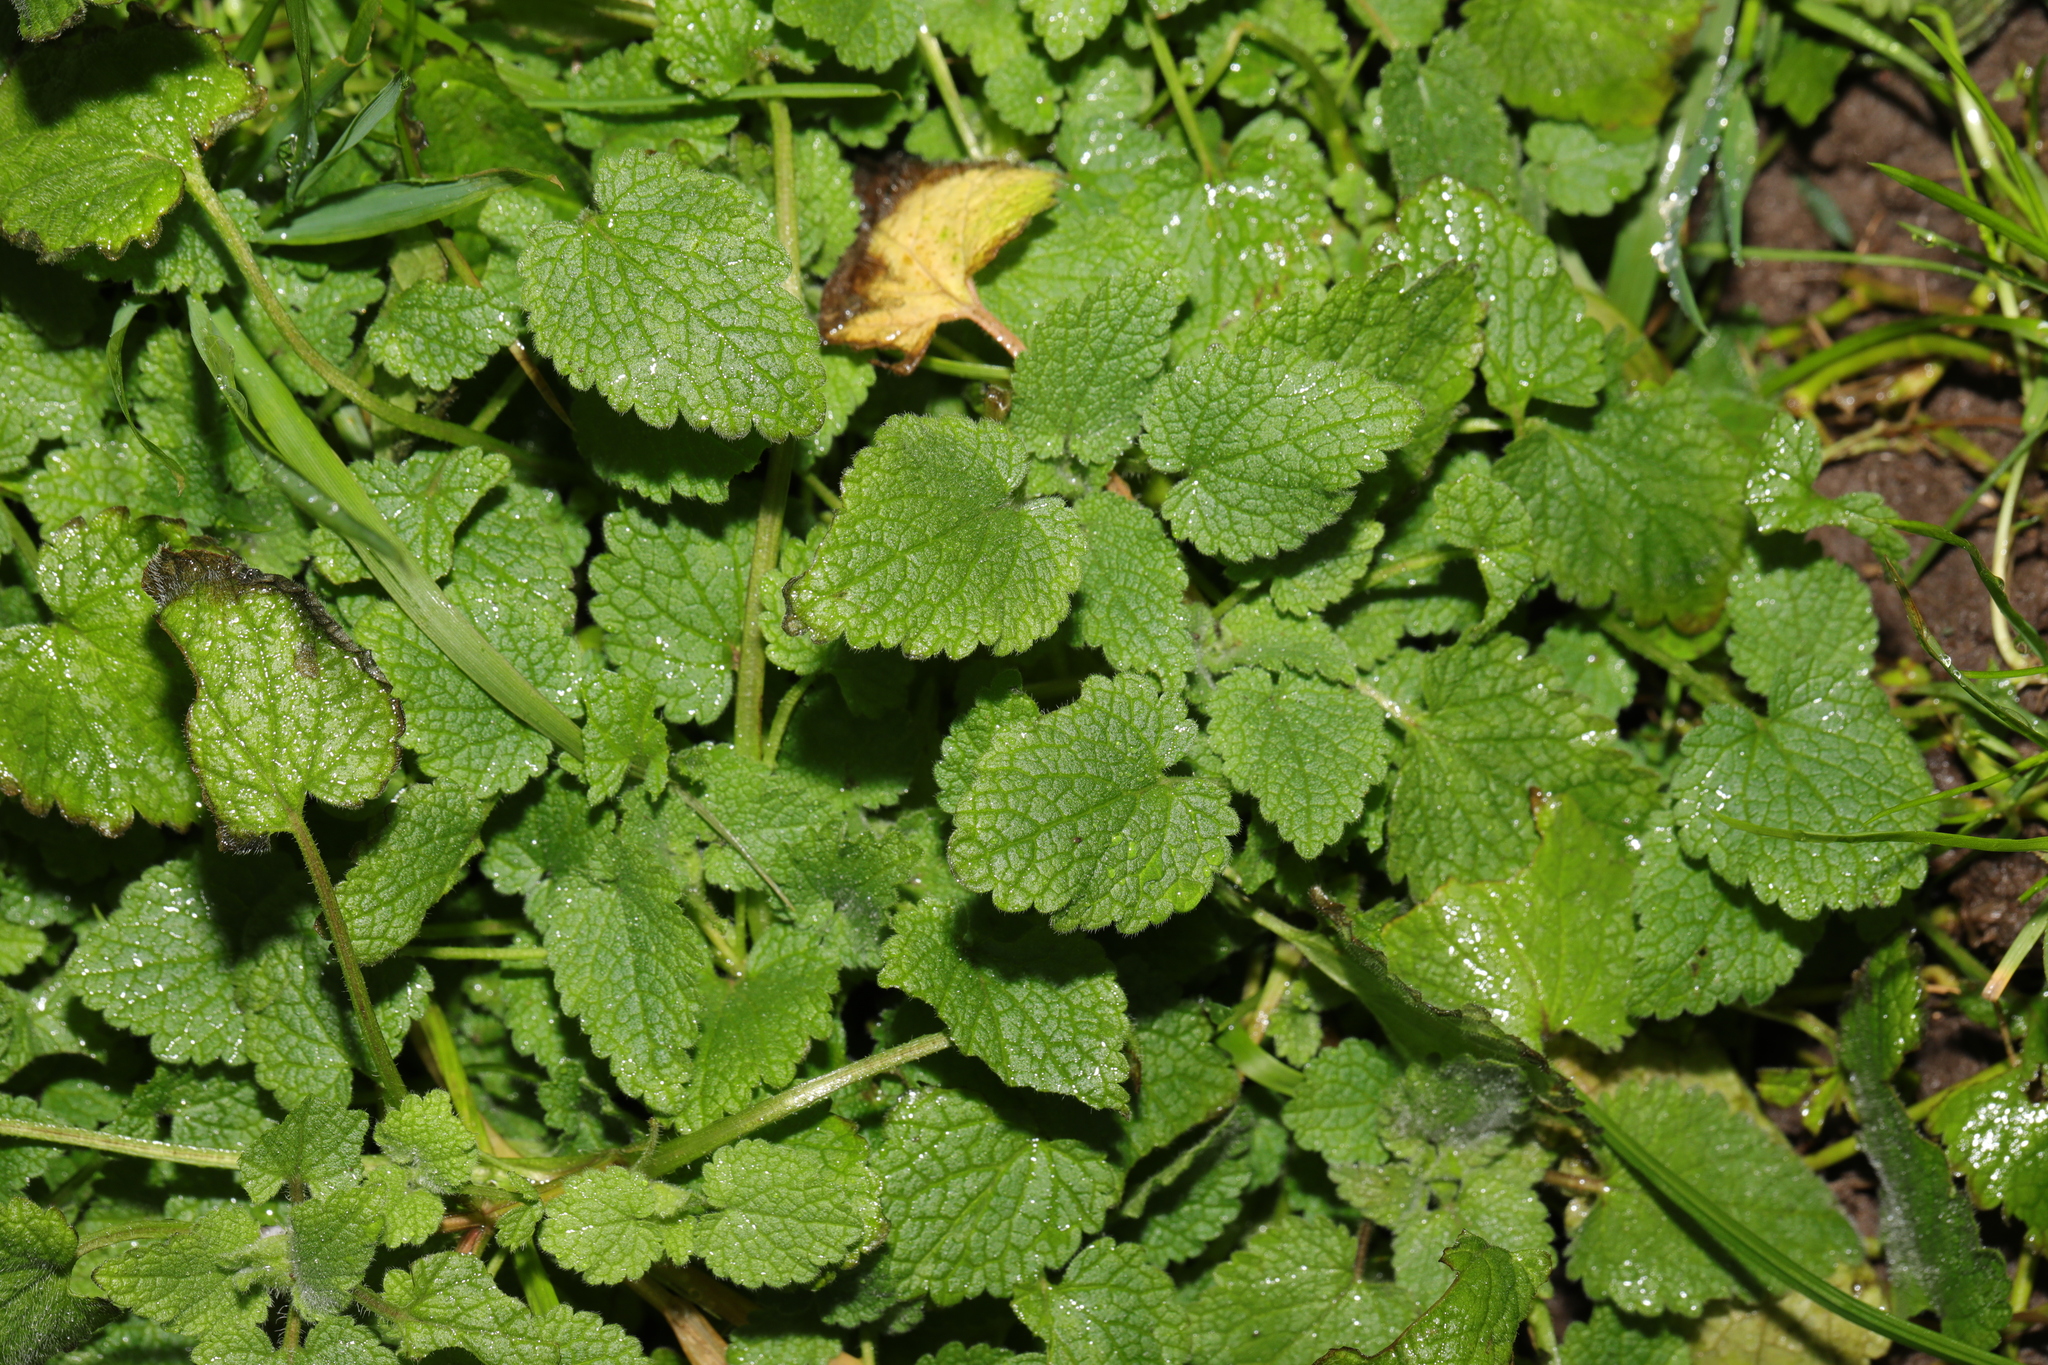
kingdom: Plantae
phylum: Tracheophyta
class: Magnoliopsida
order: Lamiales
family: Lamiaceae
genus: Lamium
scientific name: Lamium purpureum
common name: Red dead-nettle
